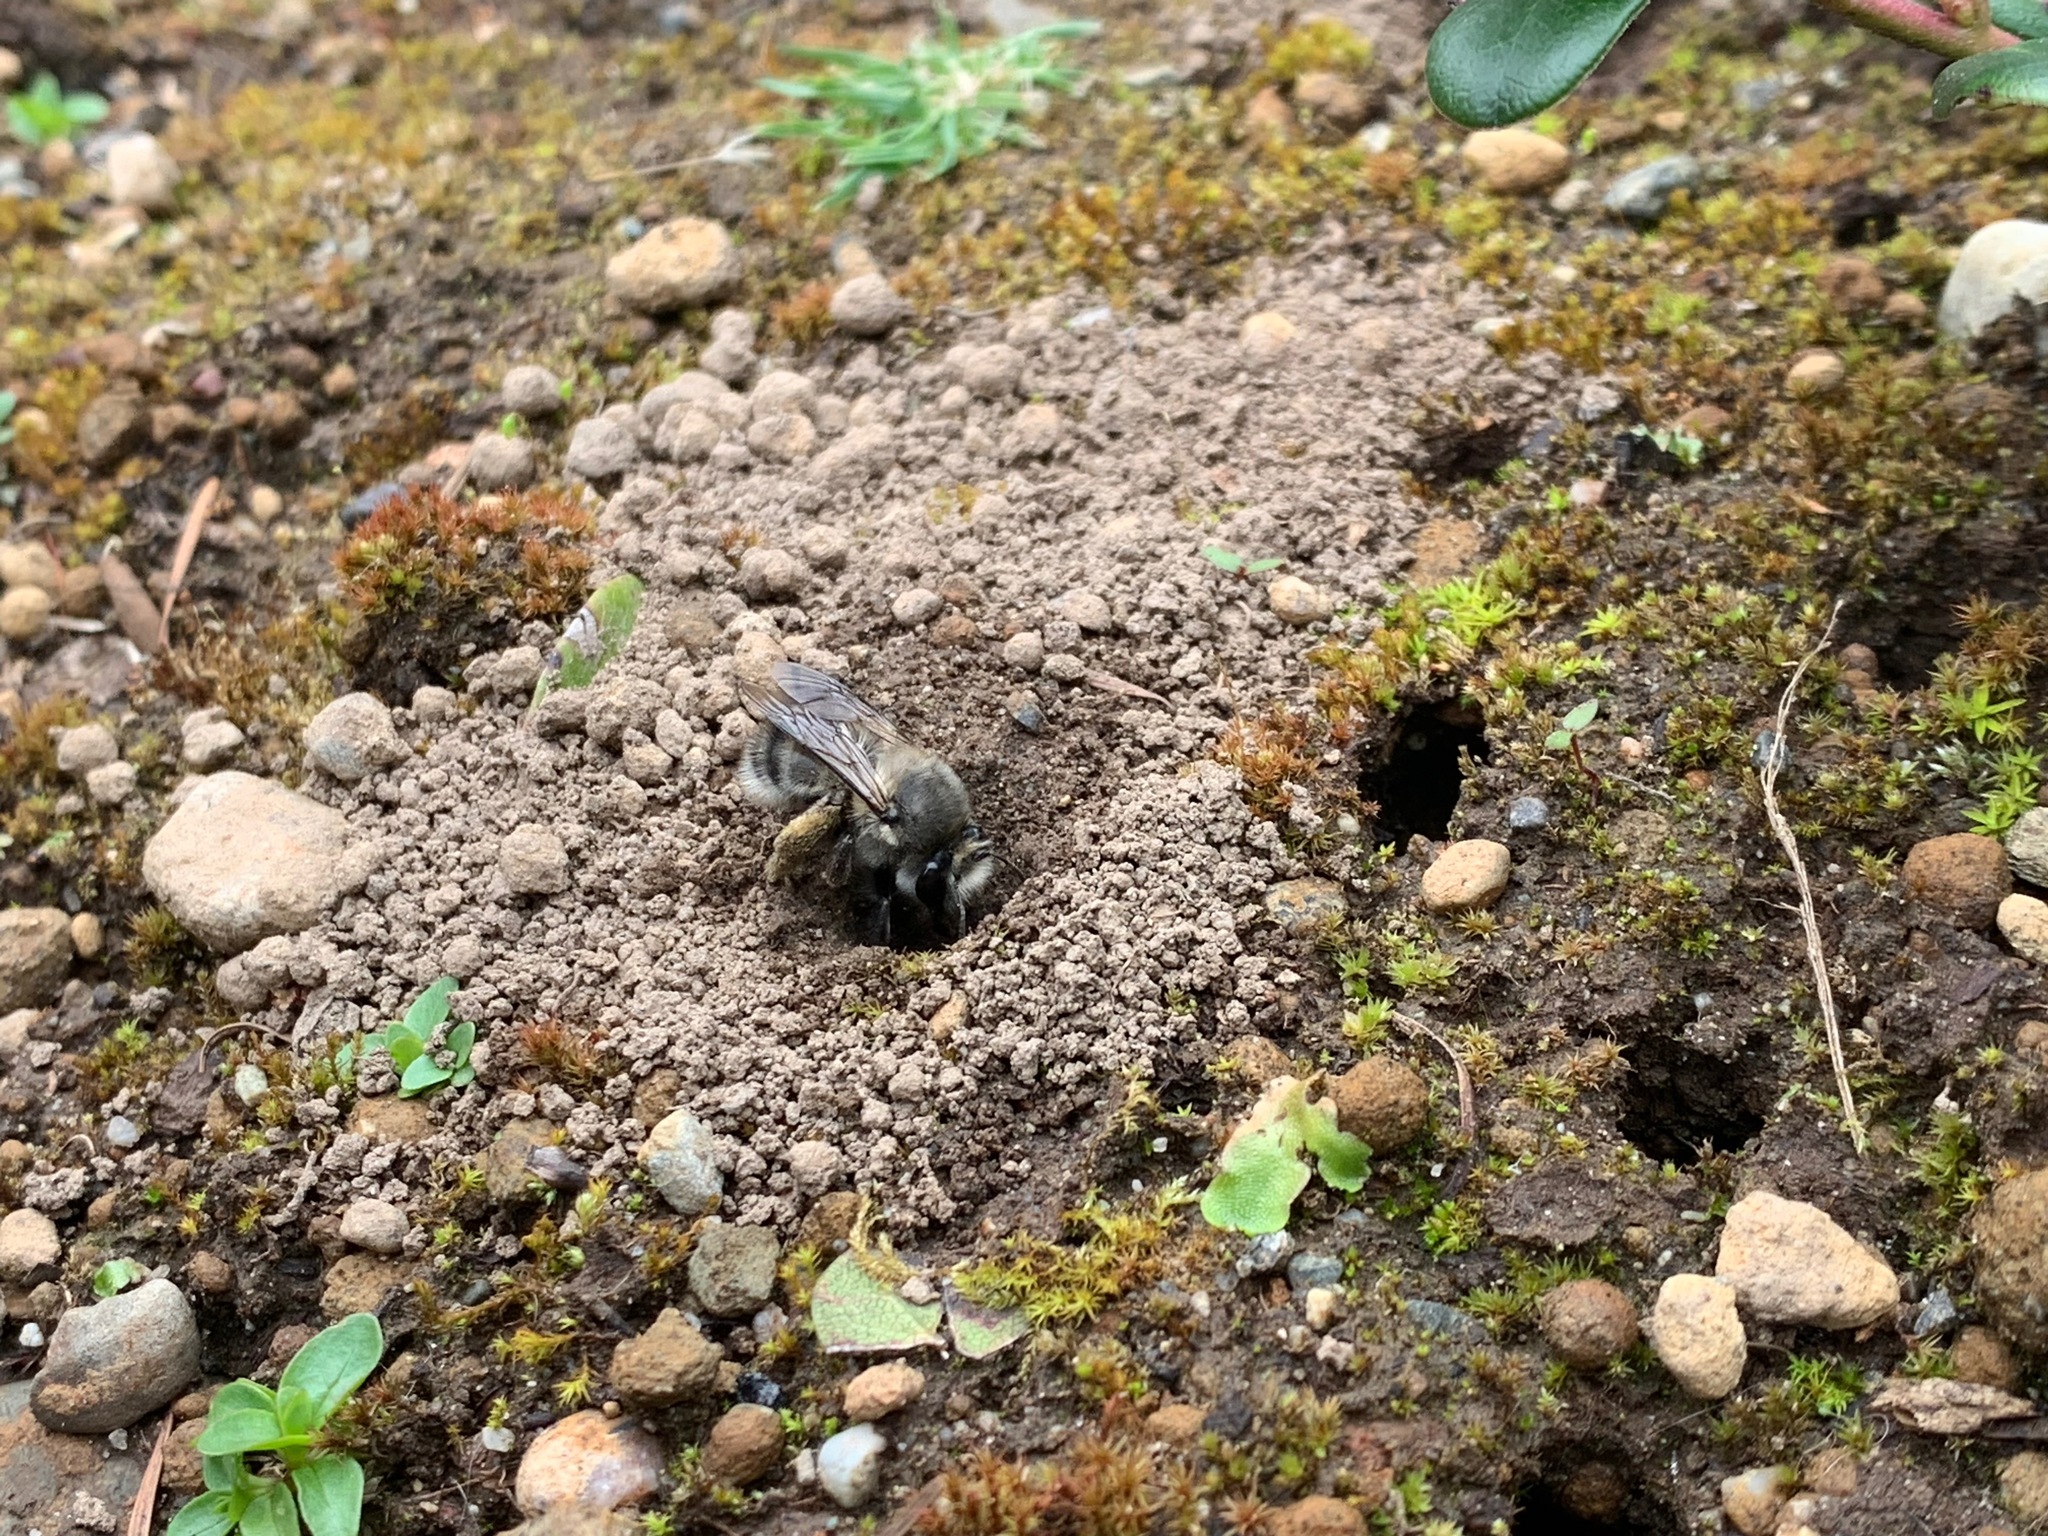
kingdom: Animalia
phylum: Arthropoda
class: Insecta
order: Hymenoptera
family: Apidae
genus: Anthophora
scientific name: Anthophora pacifica
